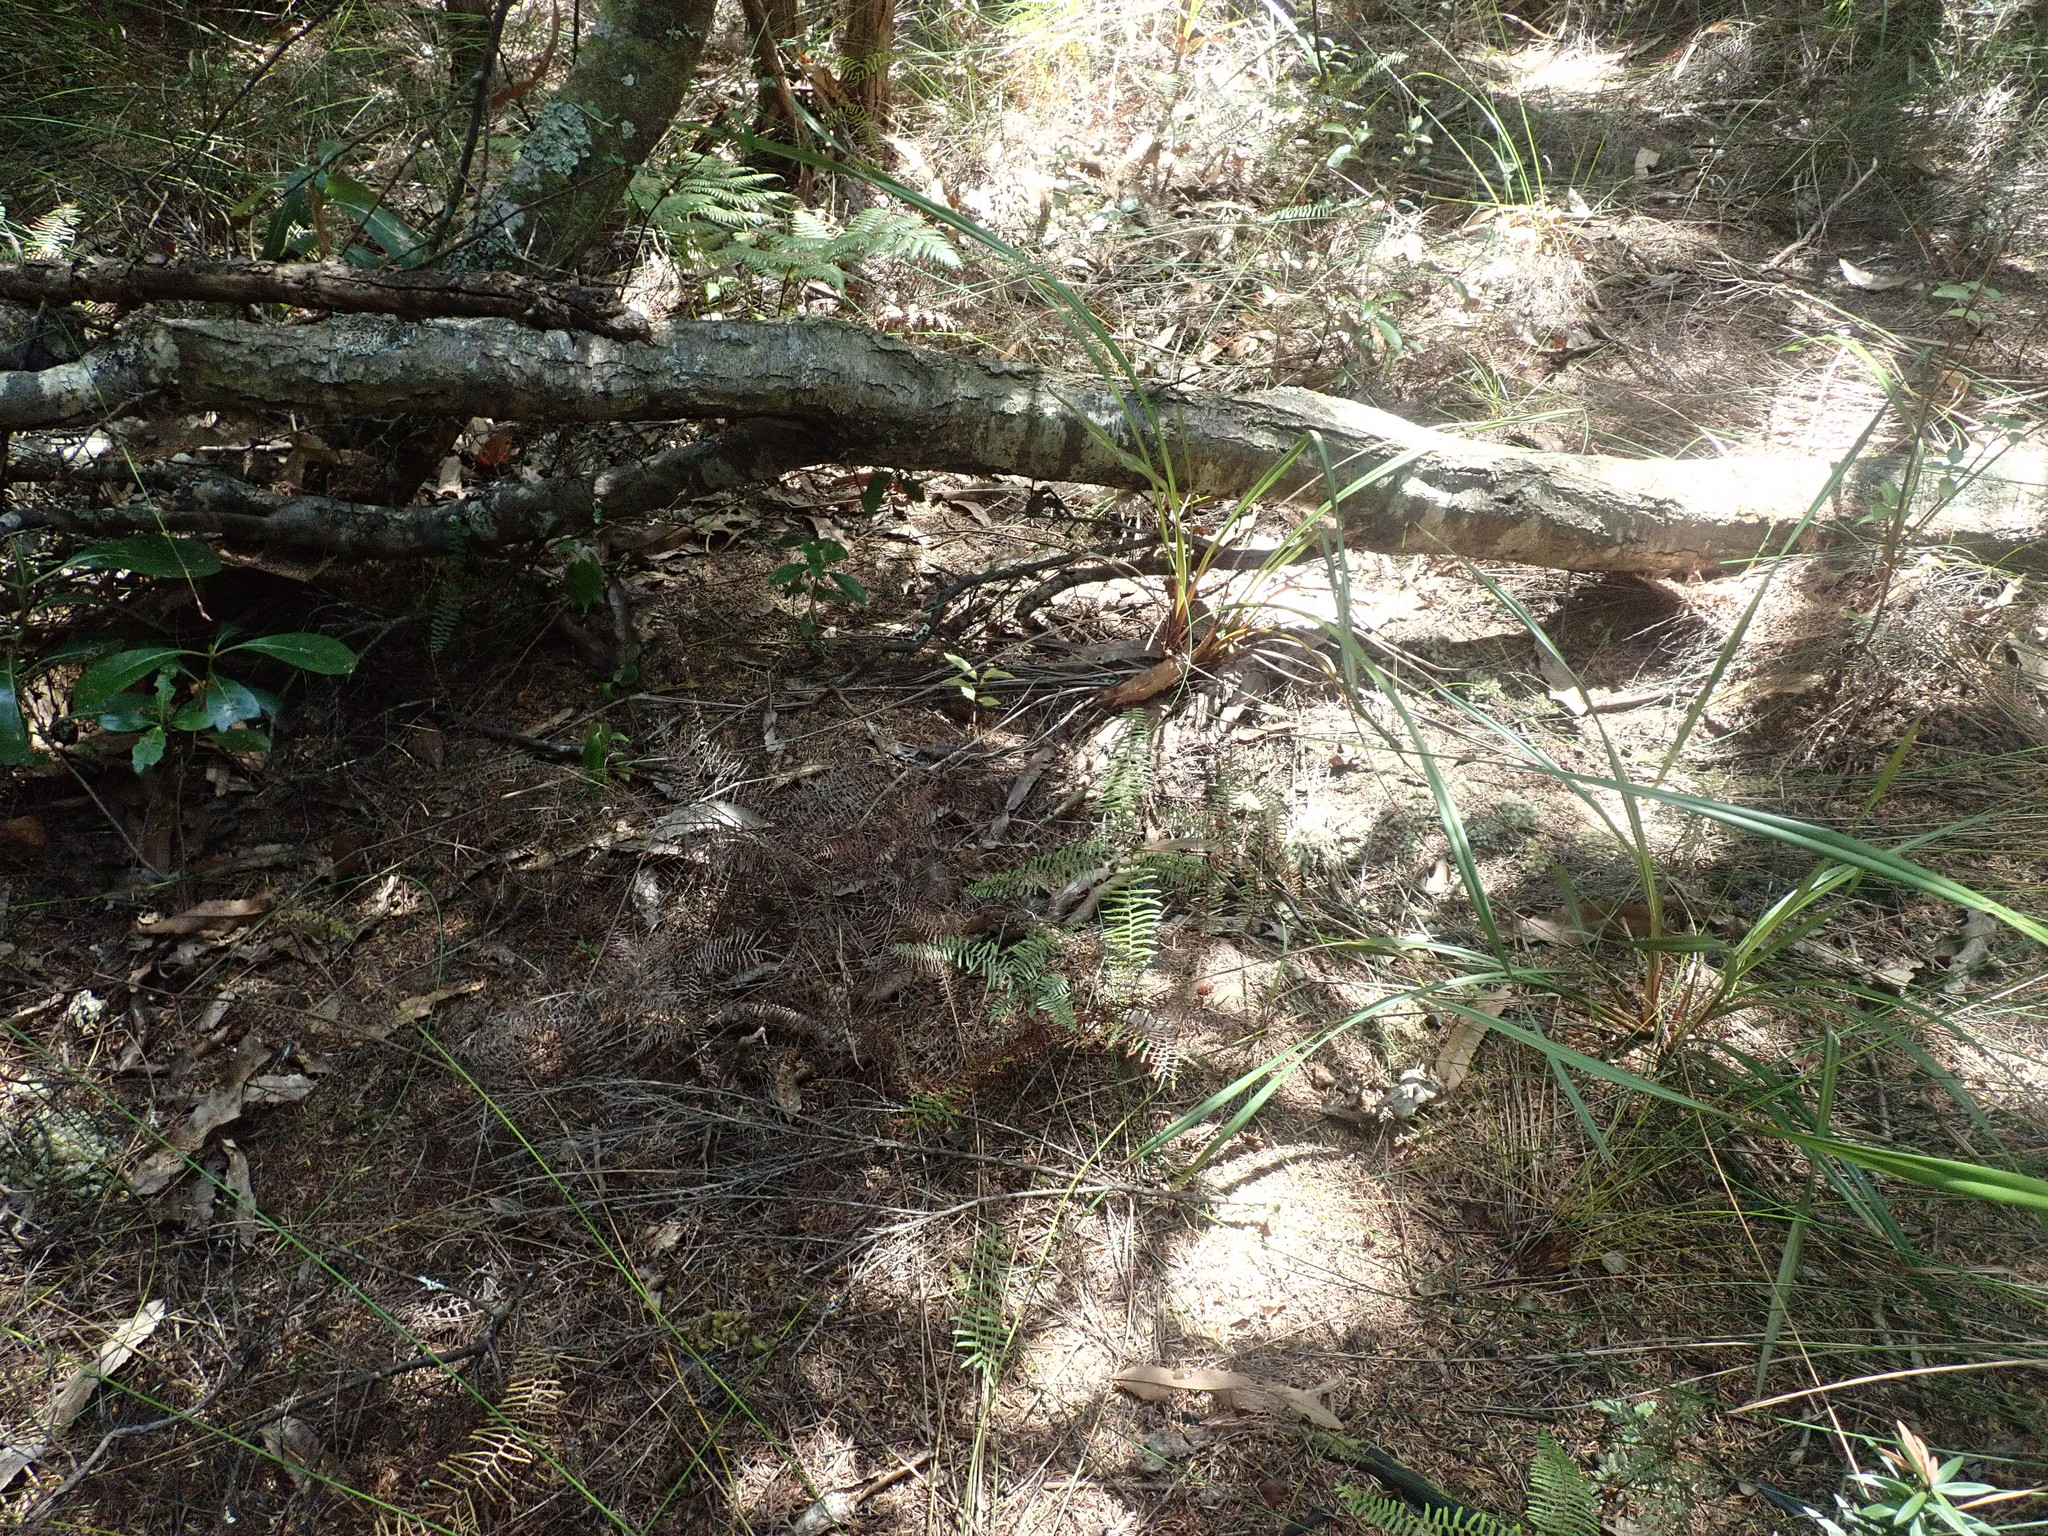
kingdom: Plantae
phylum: Tracheophyta
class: Liliopsida
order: Asparagales
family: Asphodelaceae
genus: Dianella
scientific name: Dianella nigra
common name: New zealand-blueberry
